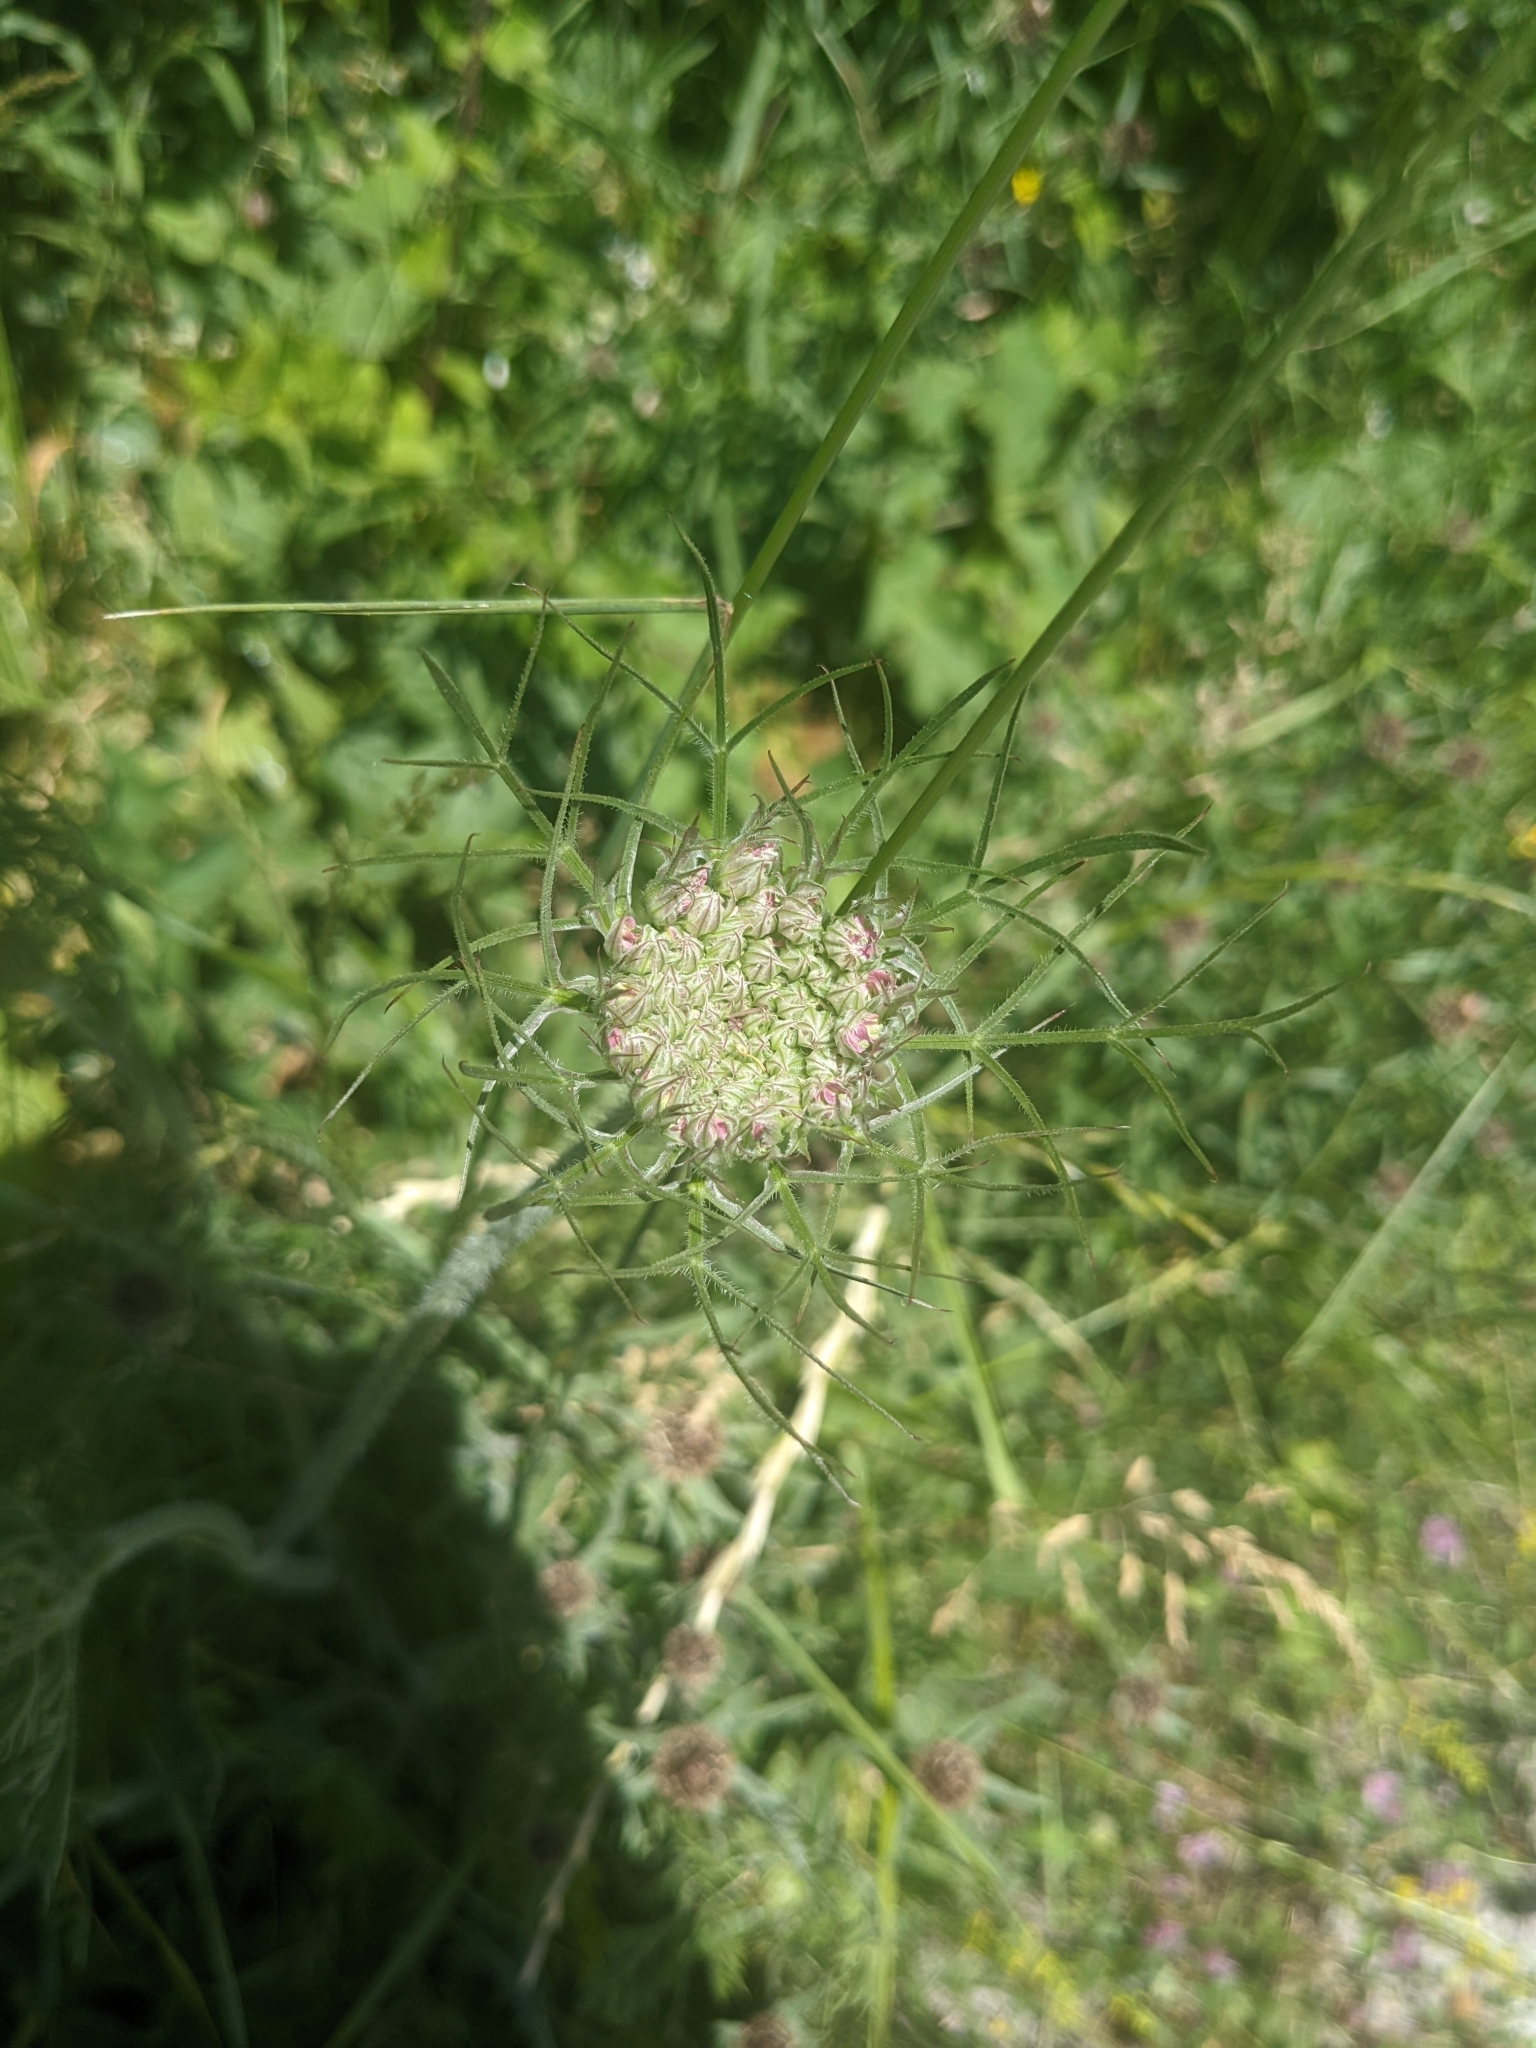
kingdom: Plantae
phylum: Tracheophyta
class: Magnoliopsida
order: Apiales
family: Apiaceae
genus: Daucus
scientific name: Daucus carota
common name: Wild carrot
